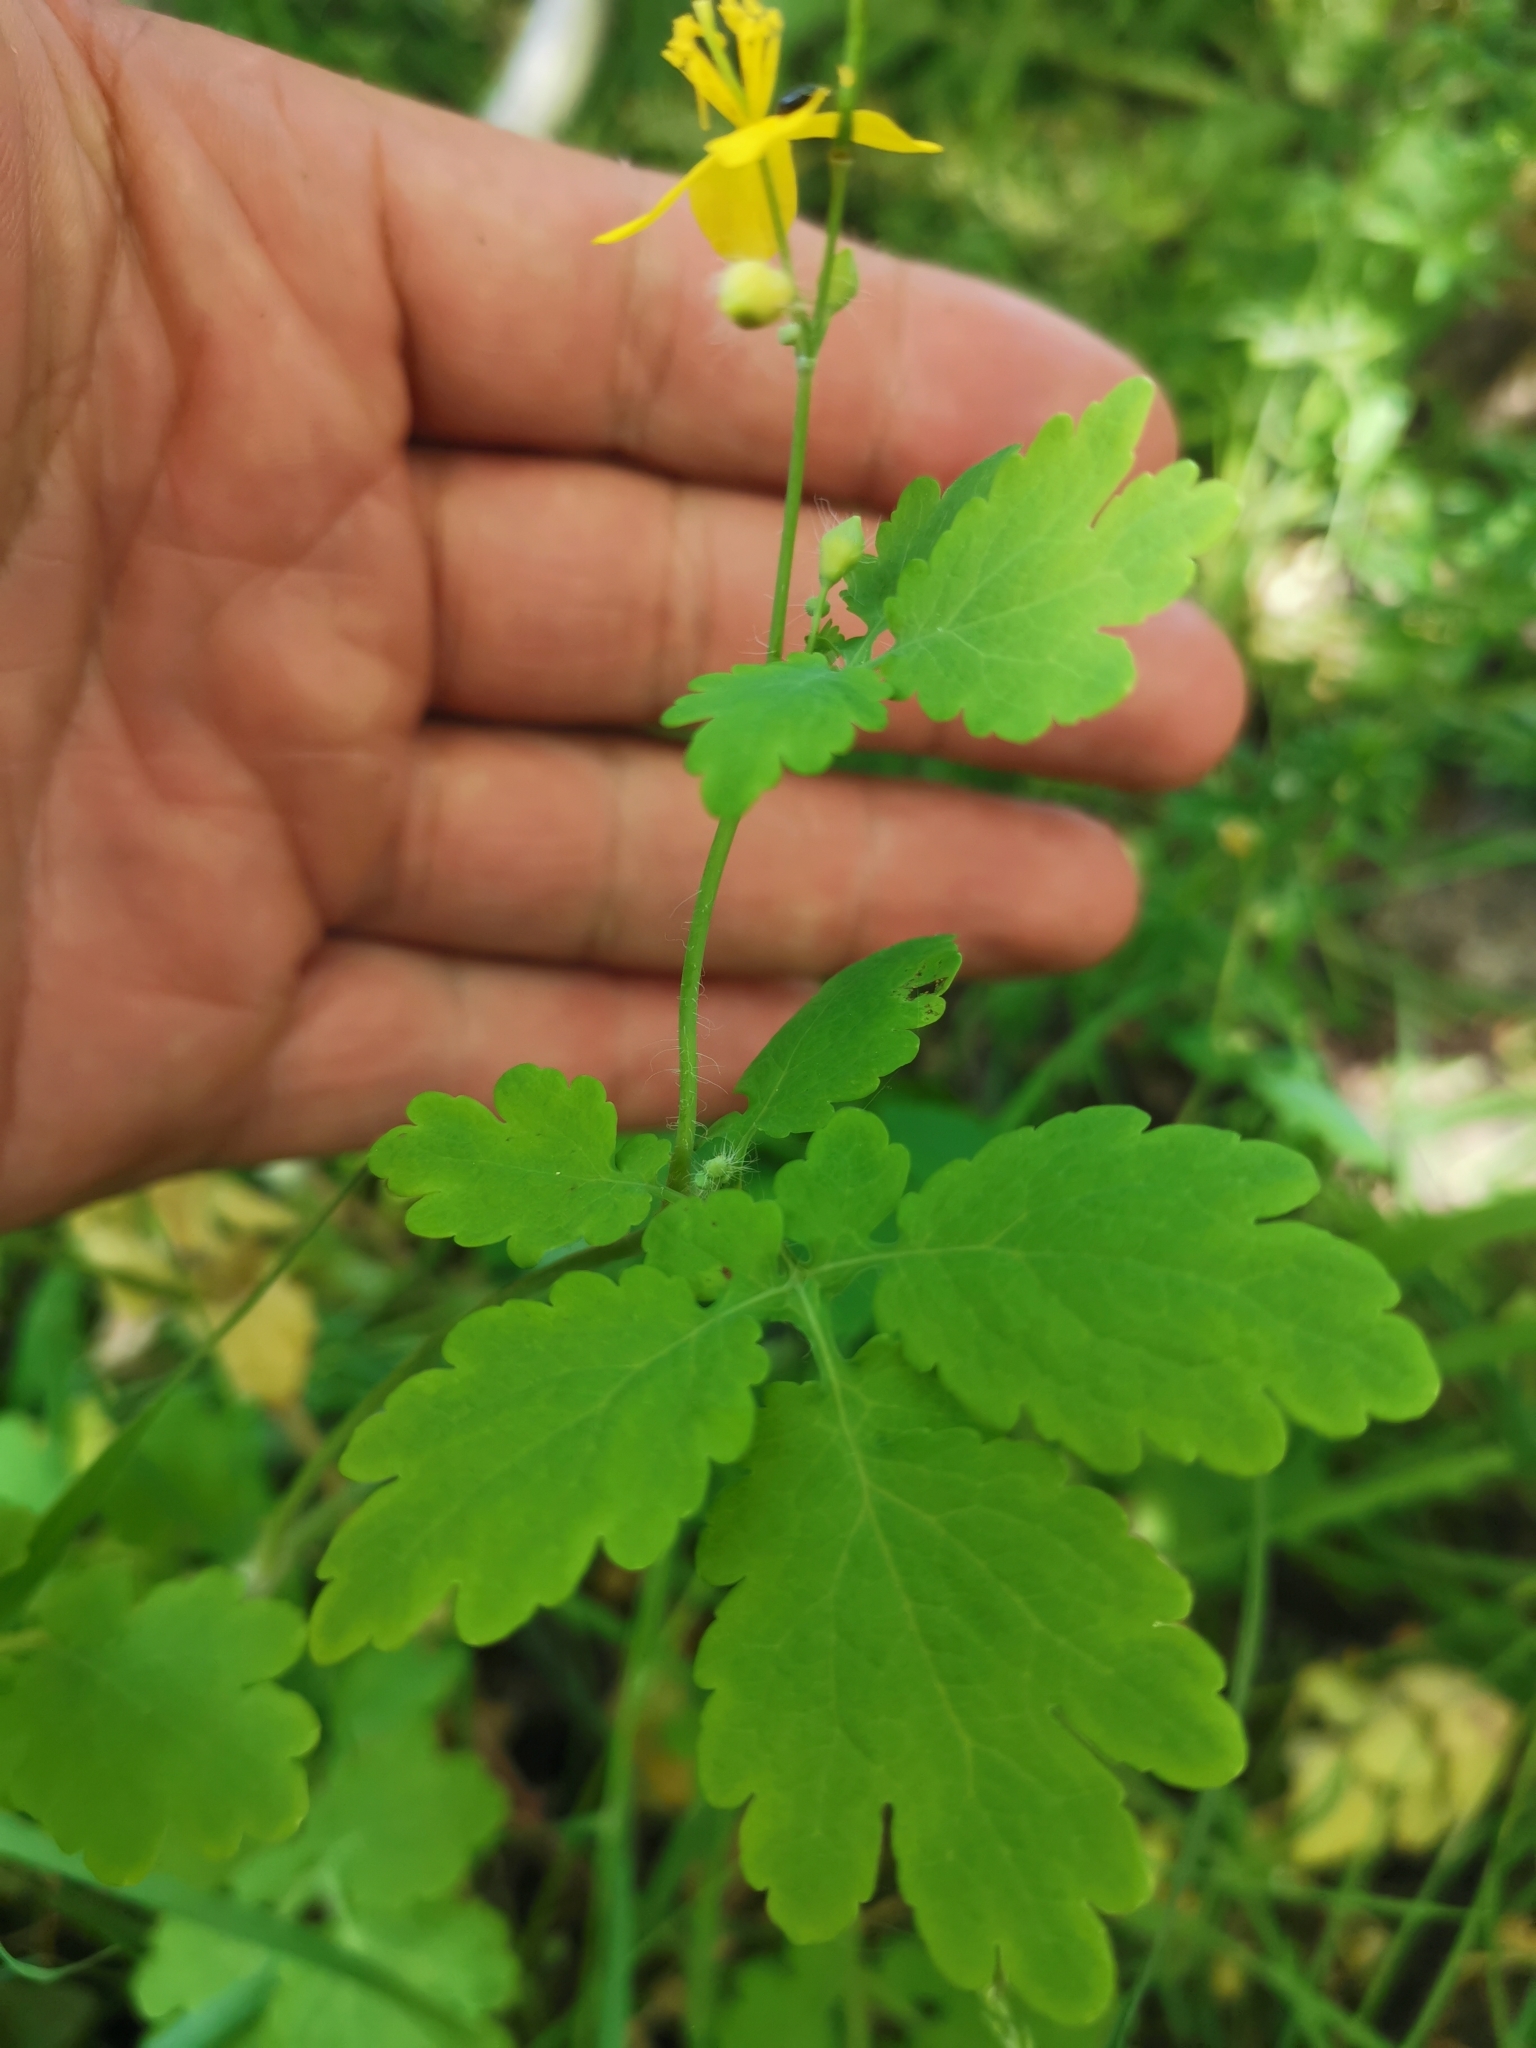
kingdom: Plantae
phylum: Tracheophyta
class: Magnoliopsida
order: Ranunculales
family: Papaveraceae
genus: Chelidonium
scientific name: Chelidonium majus
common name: Greater celandine
